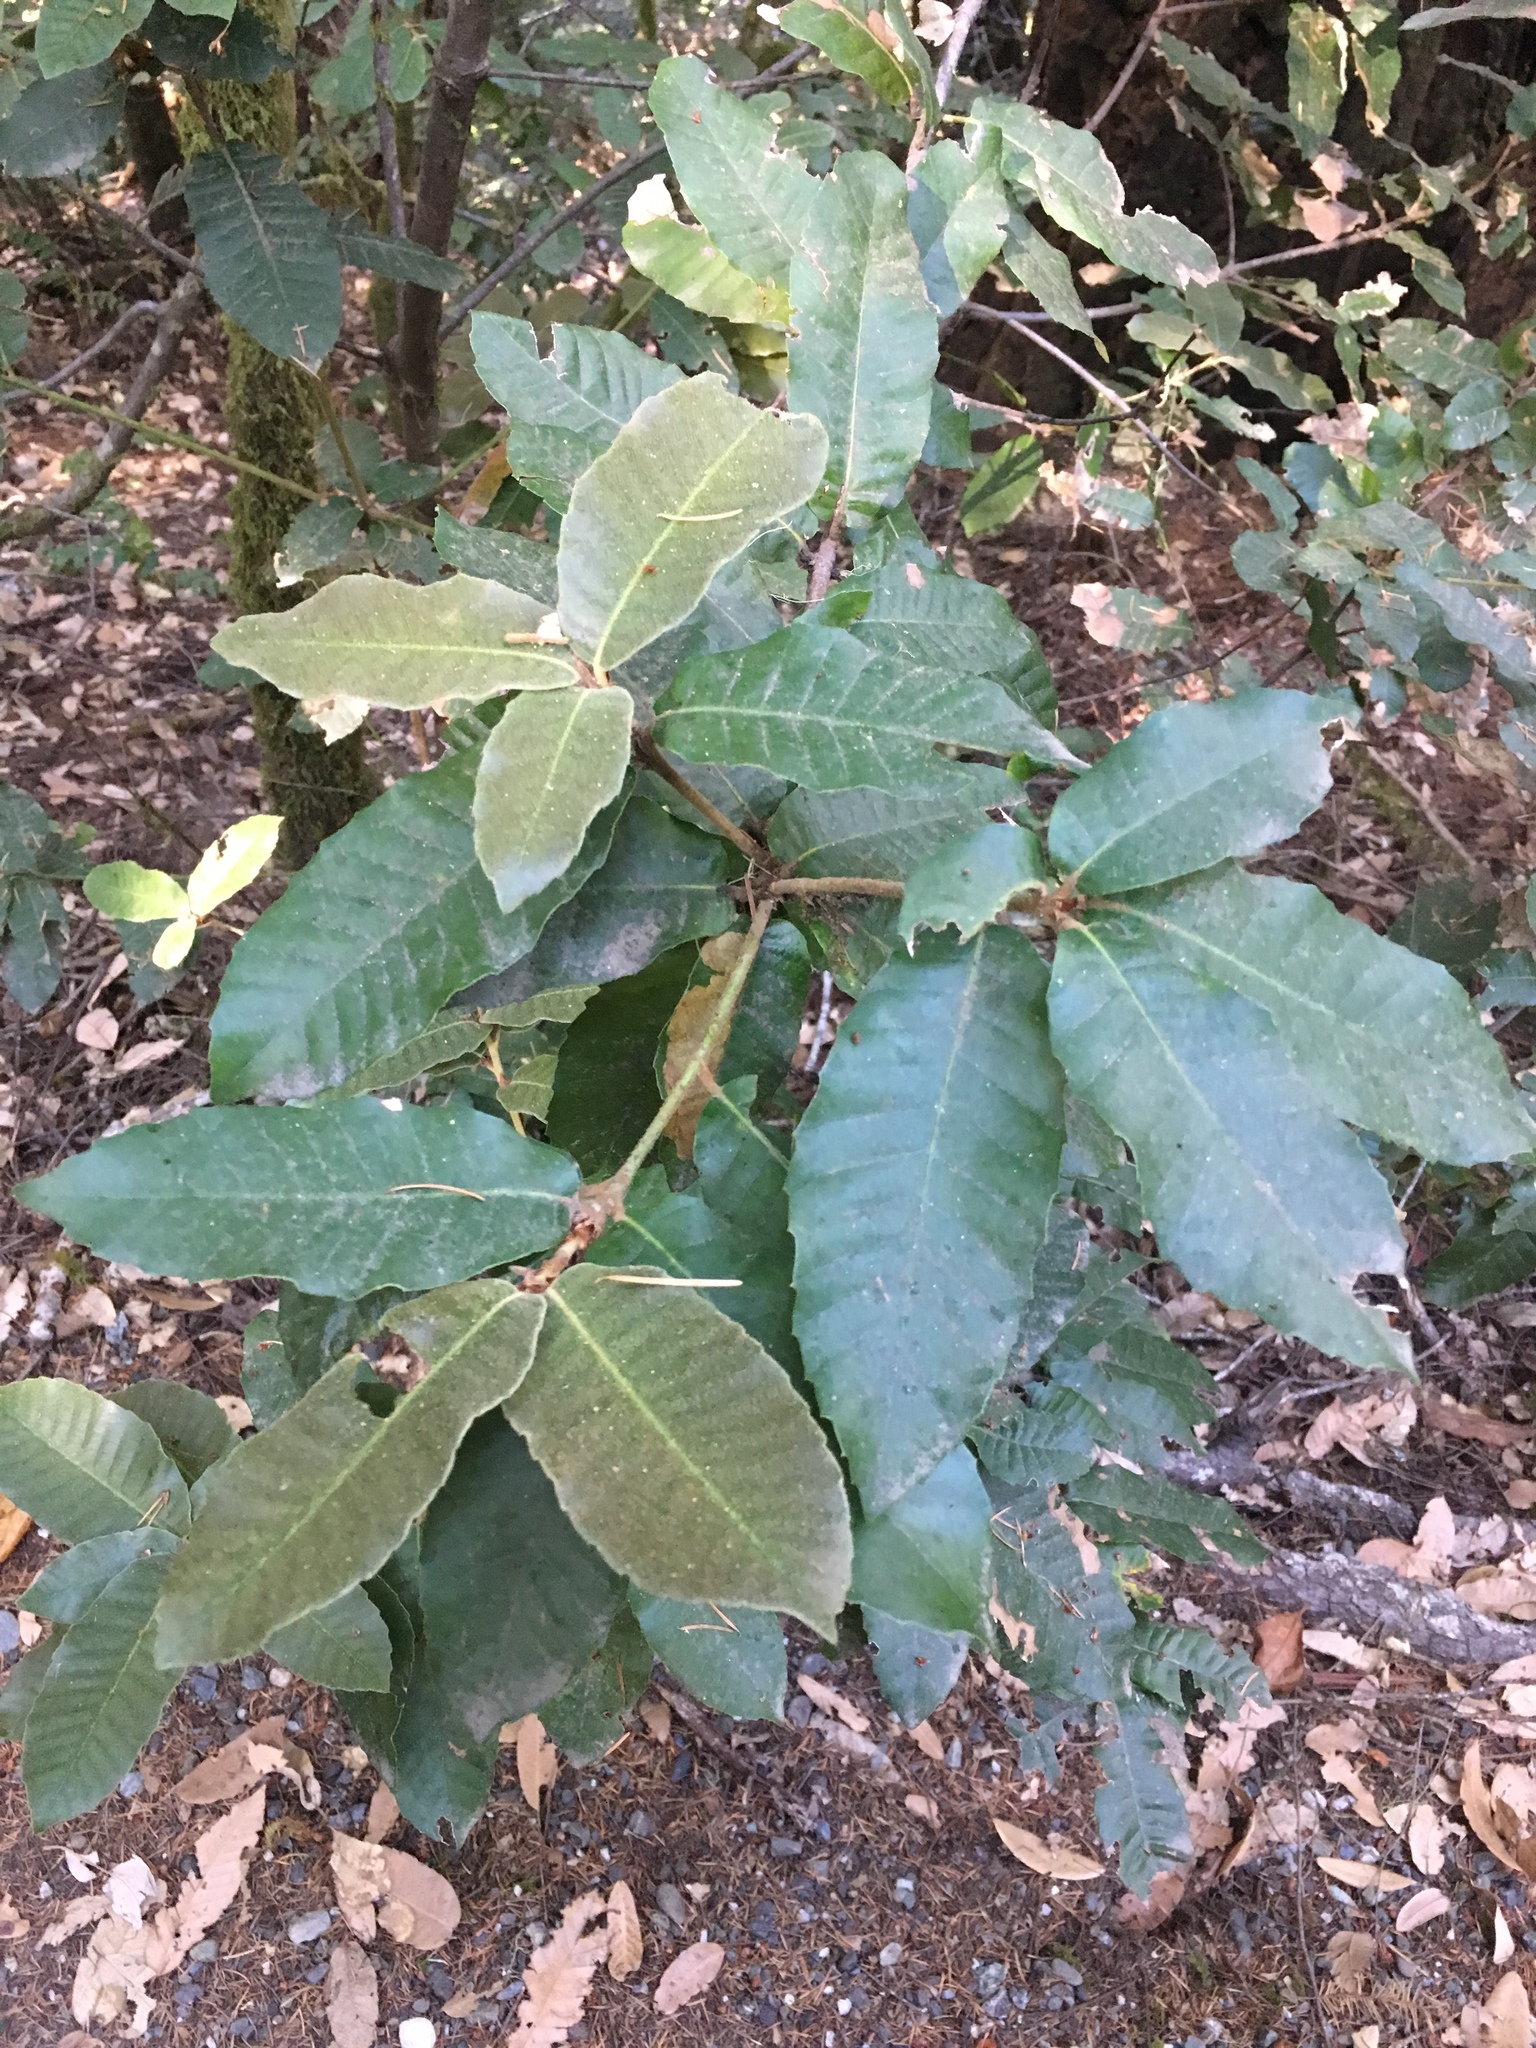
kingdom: Plantae
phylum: Tracheophyta
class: Magnoliopsida
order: Fagales
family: Fagaceae
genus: Notholithocarpus
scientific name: Notholithocarpus densiflorus
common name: Tan bark oak
